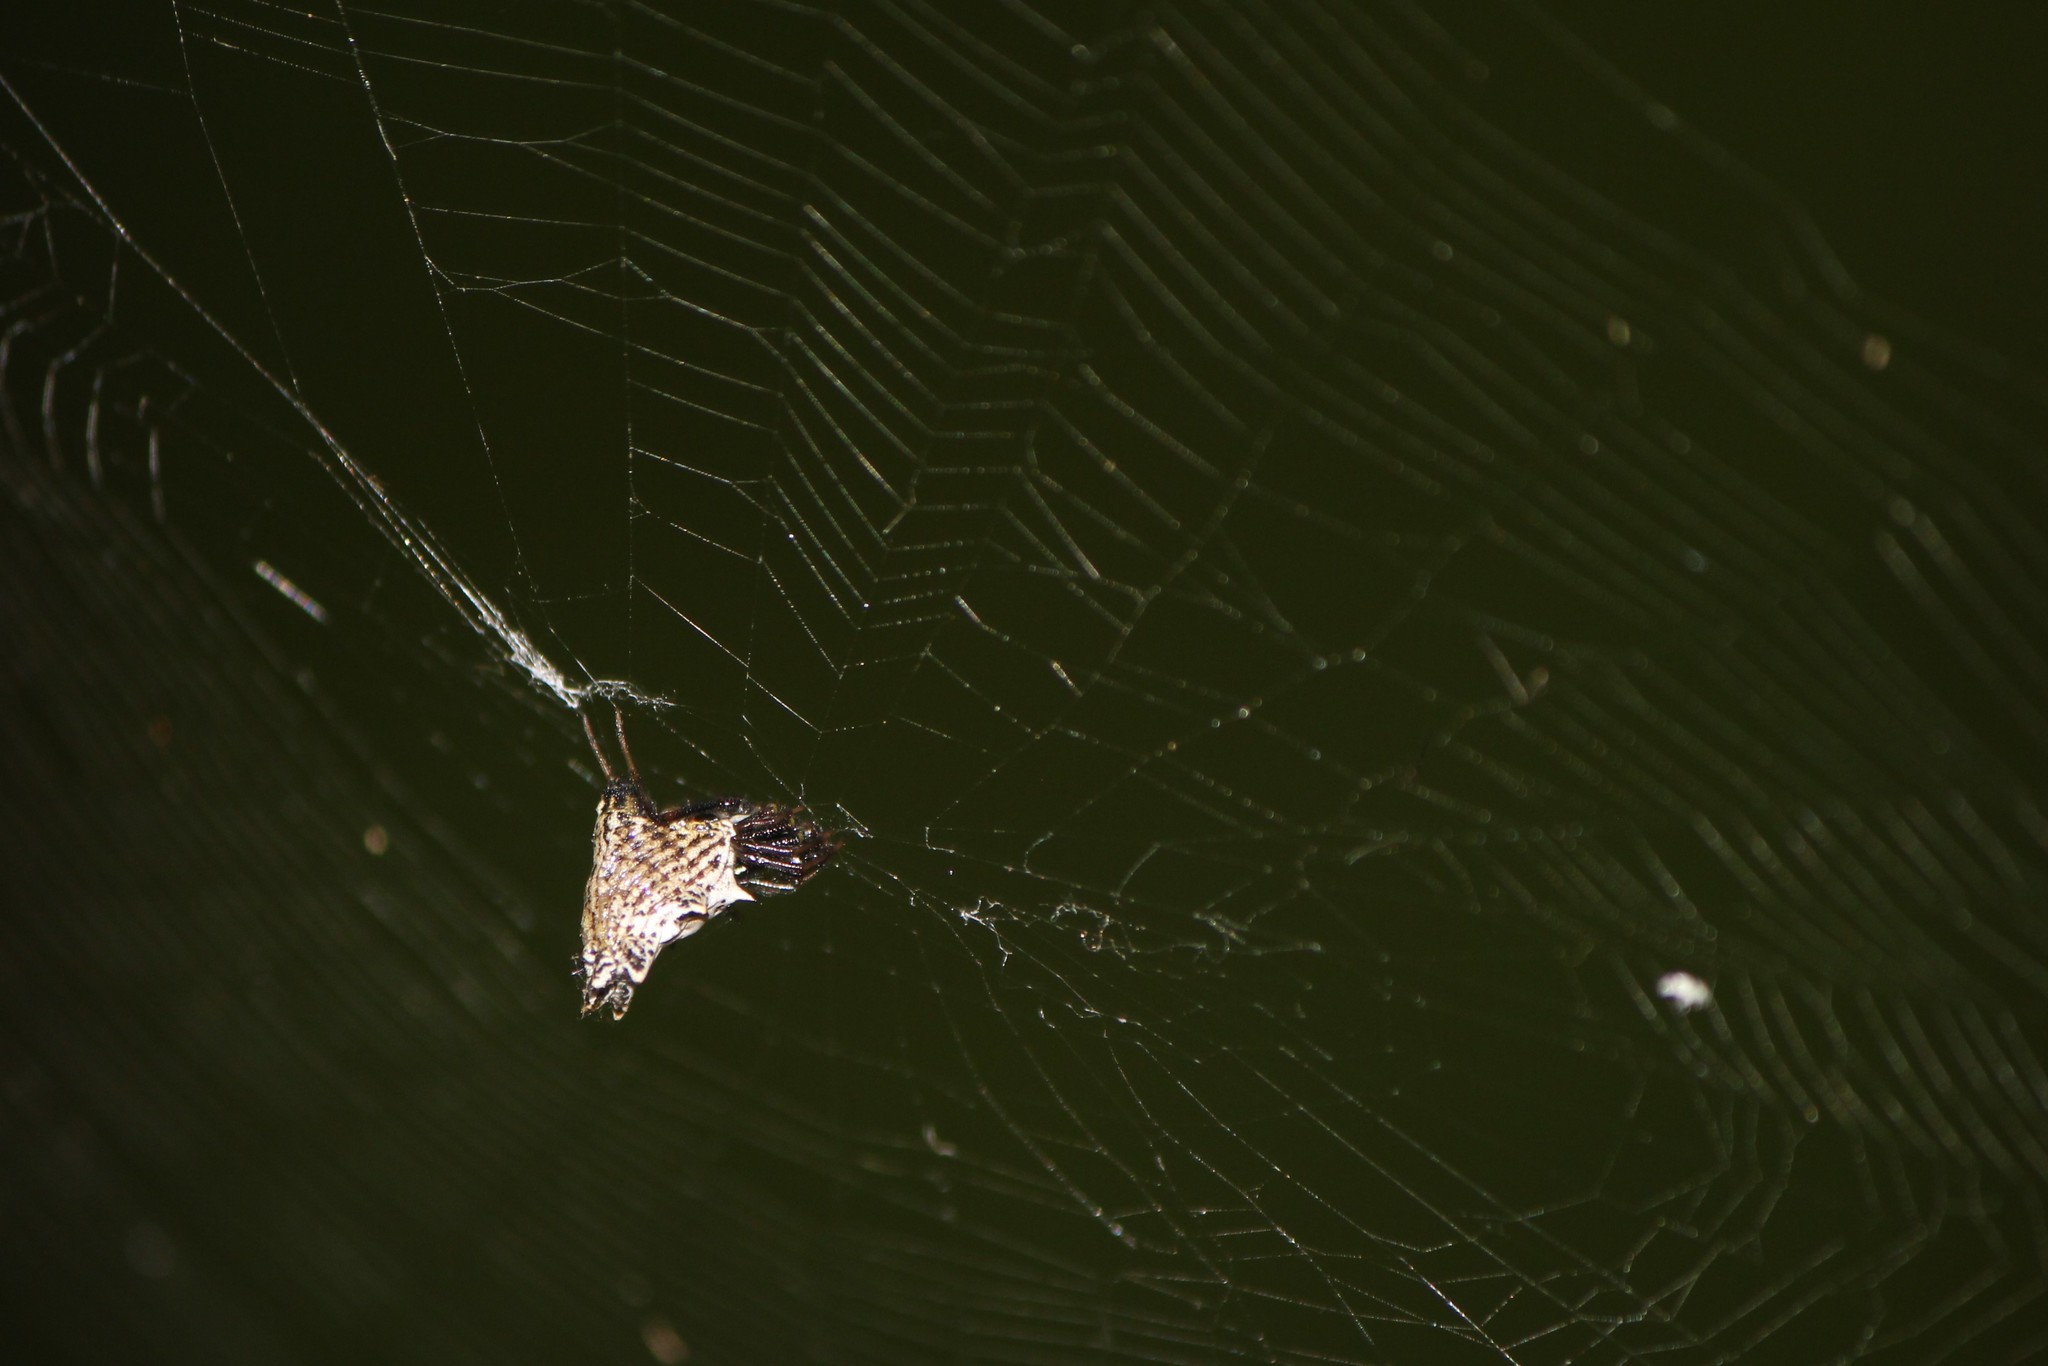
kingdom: Animalia
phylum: Arthropoda
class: Arachnida
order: Araneae
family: Araneidae
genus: Micrathena
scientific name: Micrathena gracilis
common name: Orb weavers
